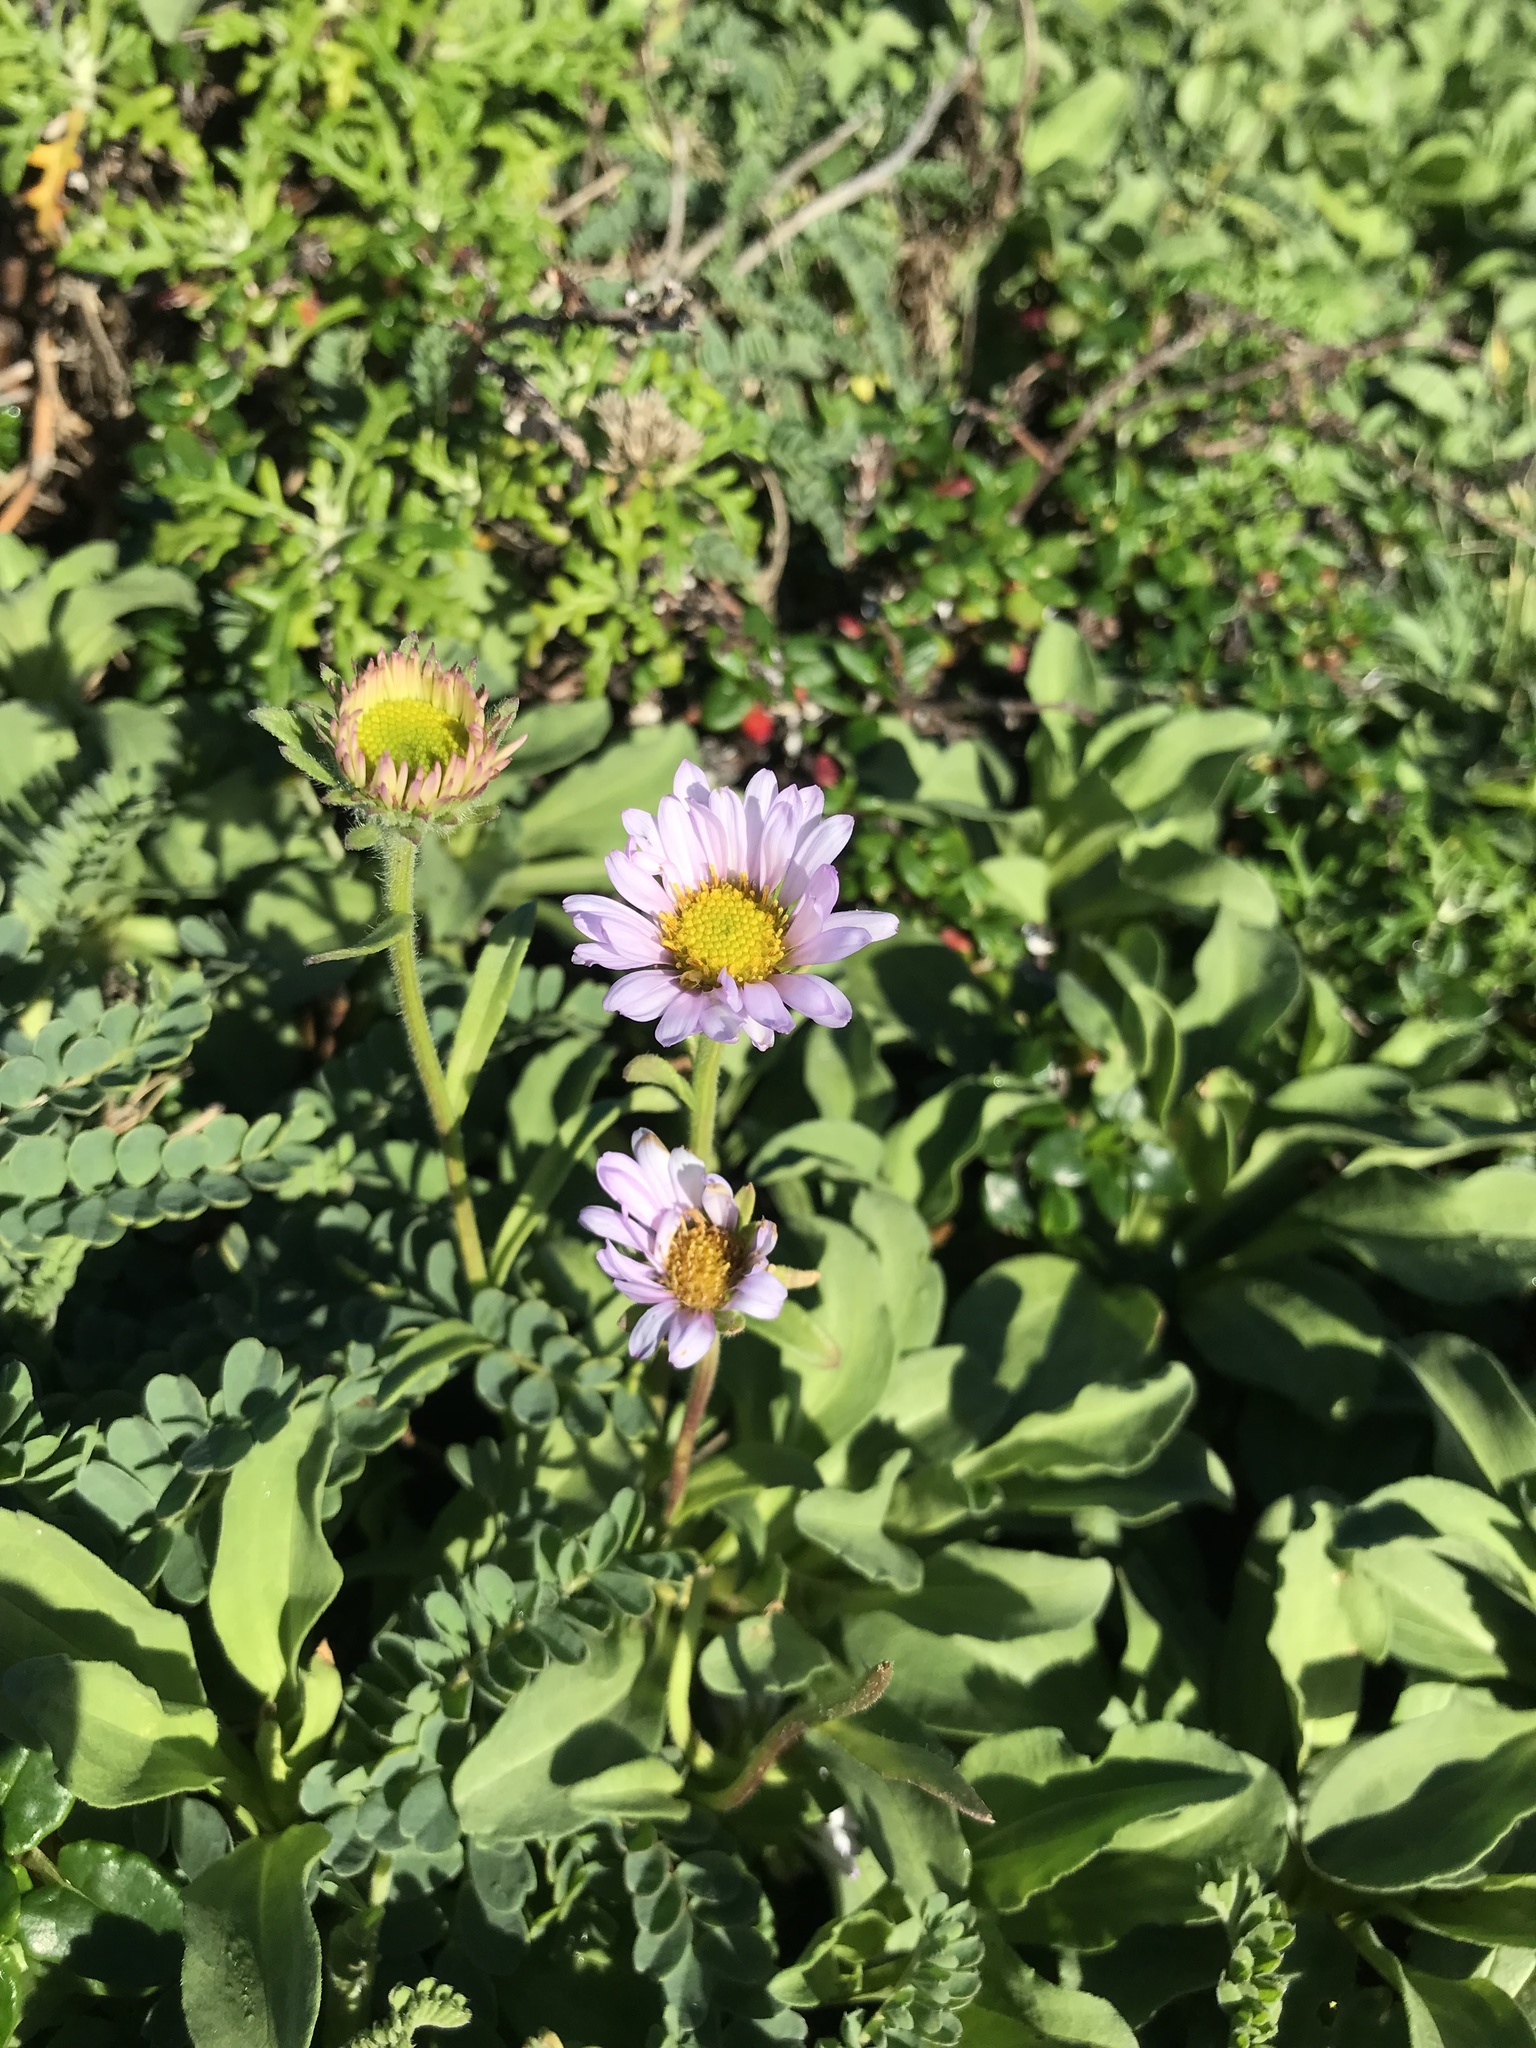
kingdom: Plantae
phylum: Tracheophyta
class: Magnoliopsida
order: Asterales
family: Asteraceae
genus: Erigeron
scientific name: Erigeron glaucus
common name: Seaside daisy
